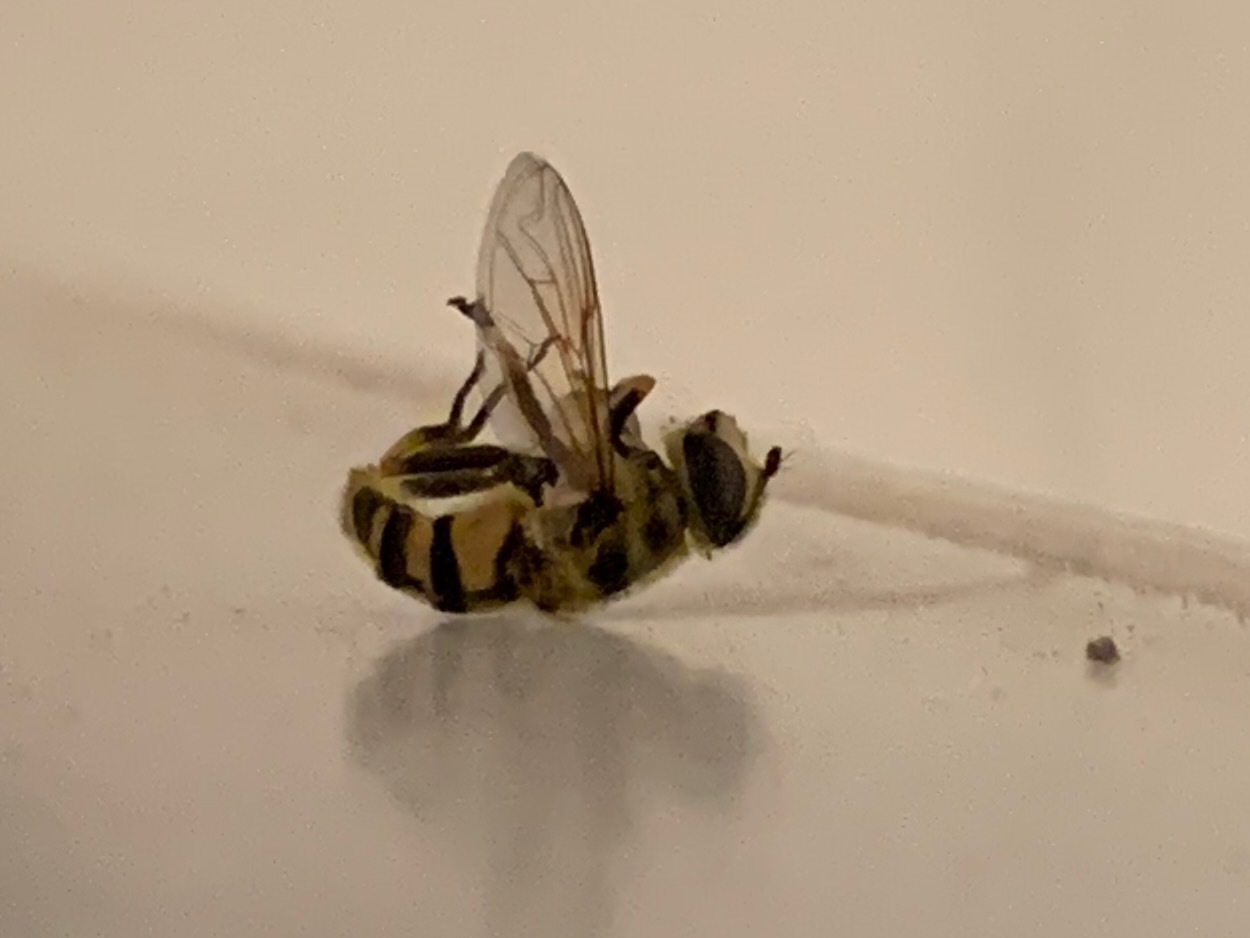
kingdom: Animalia
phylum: Arthropoda
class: Insecta
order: Diptera
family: Syrphidae
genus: Myathropa
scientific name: Myathropa florea
